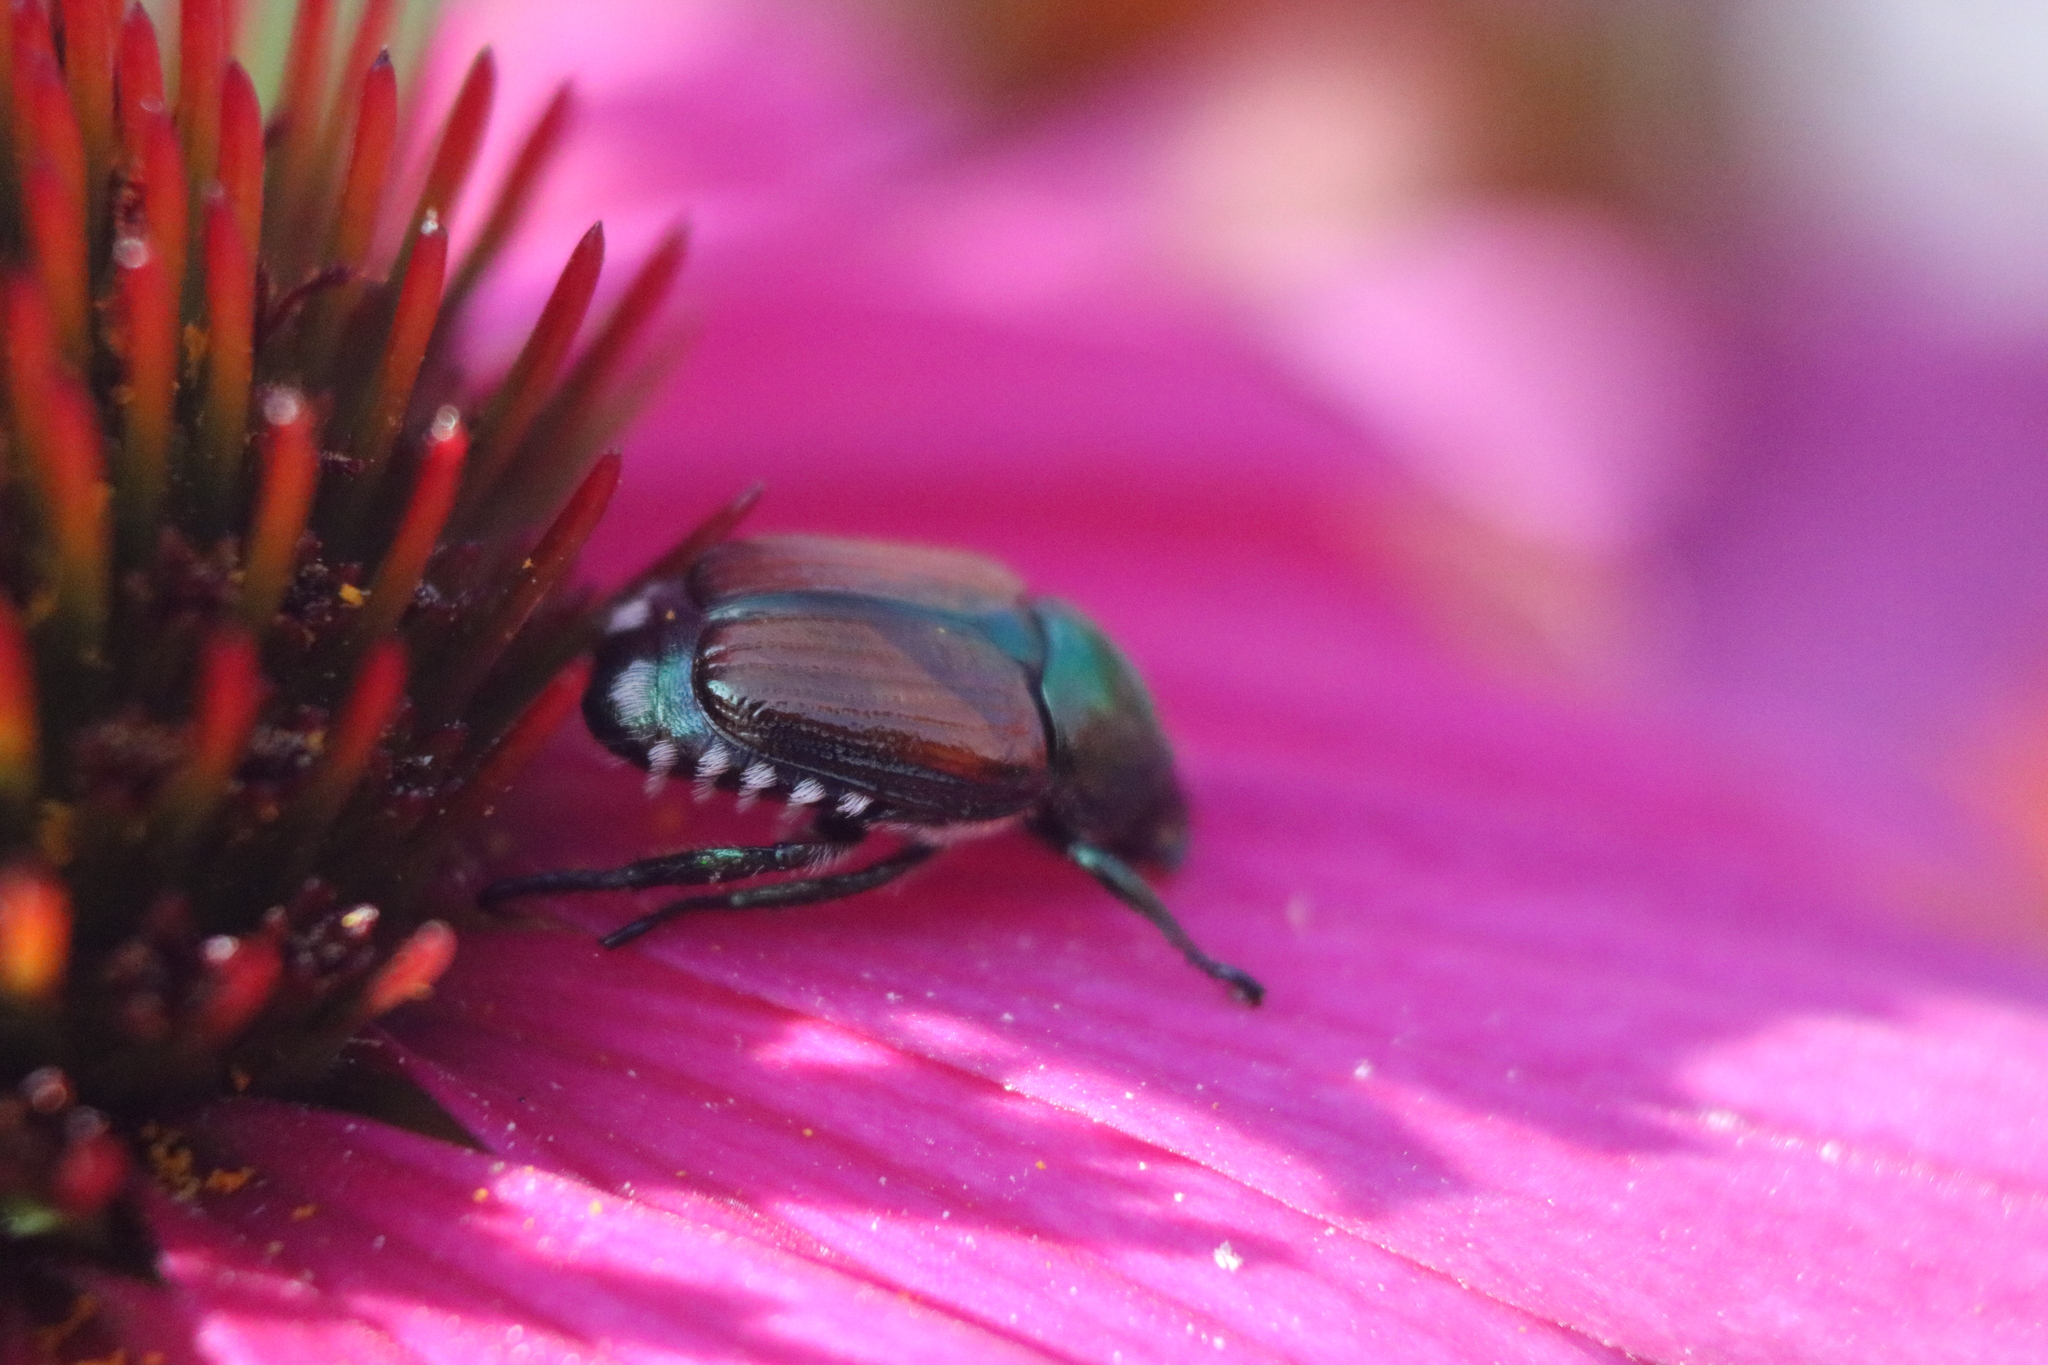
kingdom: Animalia
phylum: Arthropoda
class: Insecta
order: Coleoptera
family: Scarabaeidae
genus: Popillia
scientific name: Popillia japonica
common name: Japanese beetle
